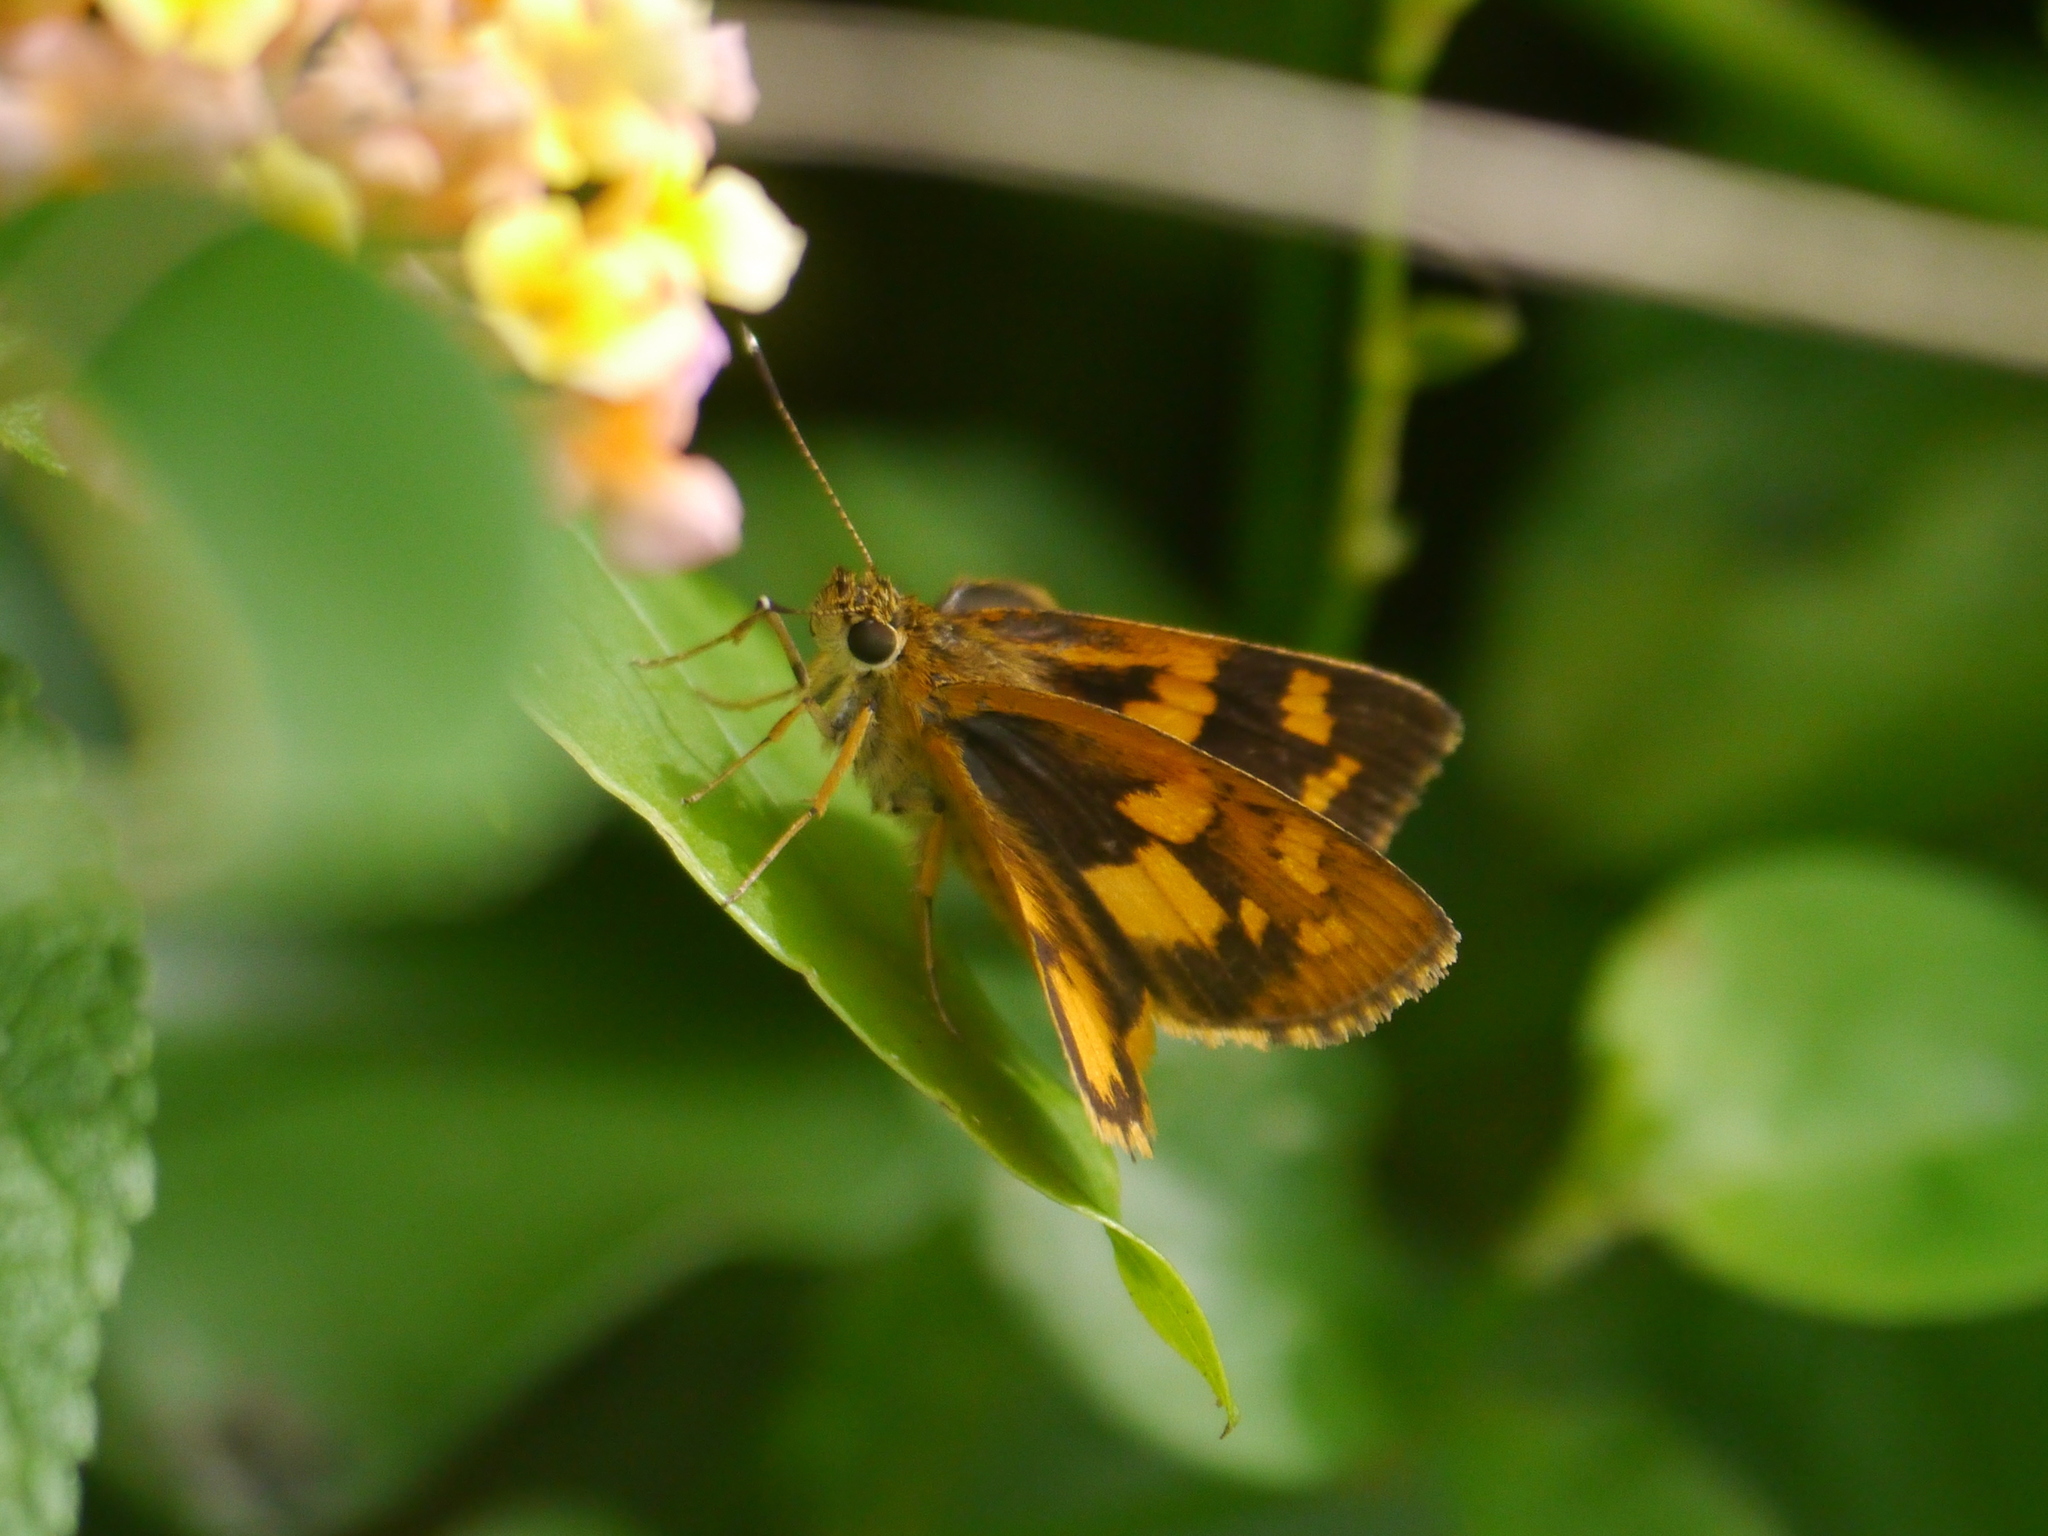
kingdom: Animalia
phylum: Arthropoda
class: Insecta
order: Lepidoptera
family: Hesperiidae
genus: Pardaleodes
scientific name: Pardaleodes incerta
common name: Savanna pathfinder
